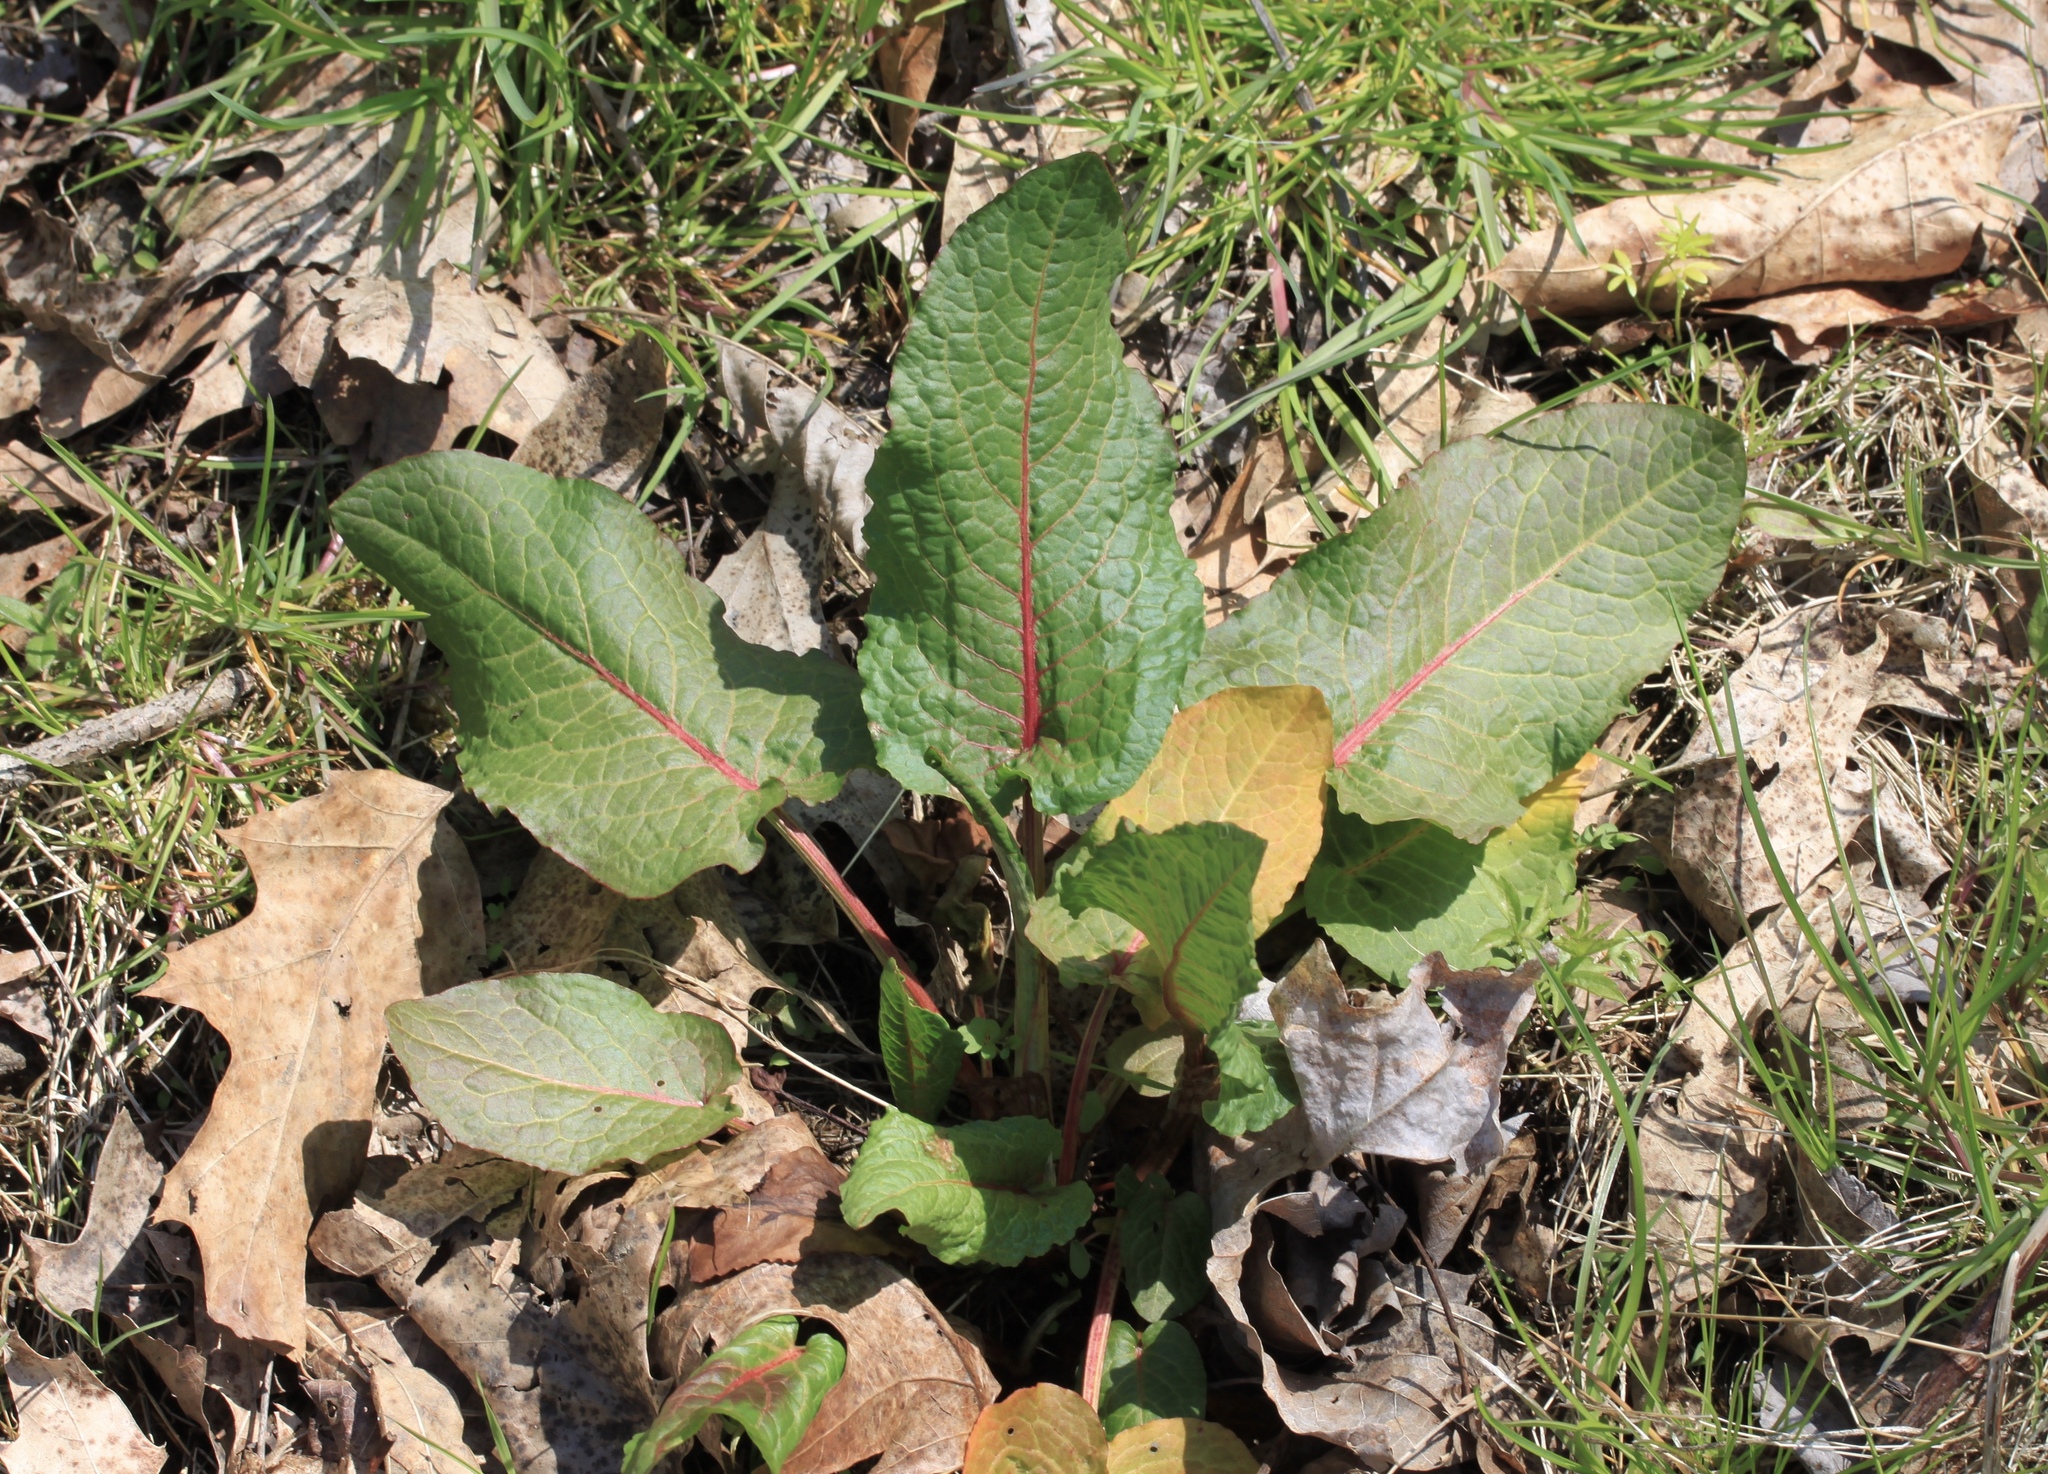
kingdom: Plantae
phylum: Tracheophyta
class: Magnoliopsida
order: Caryophyllales
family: Polygonaceae
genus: Rumex
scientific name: Rumex obtusifolius
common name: Bitter dock
